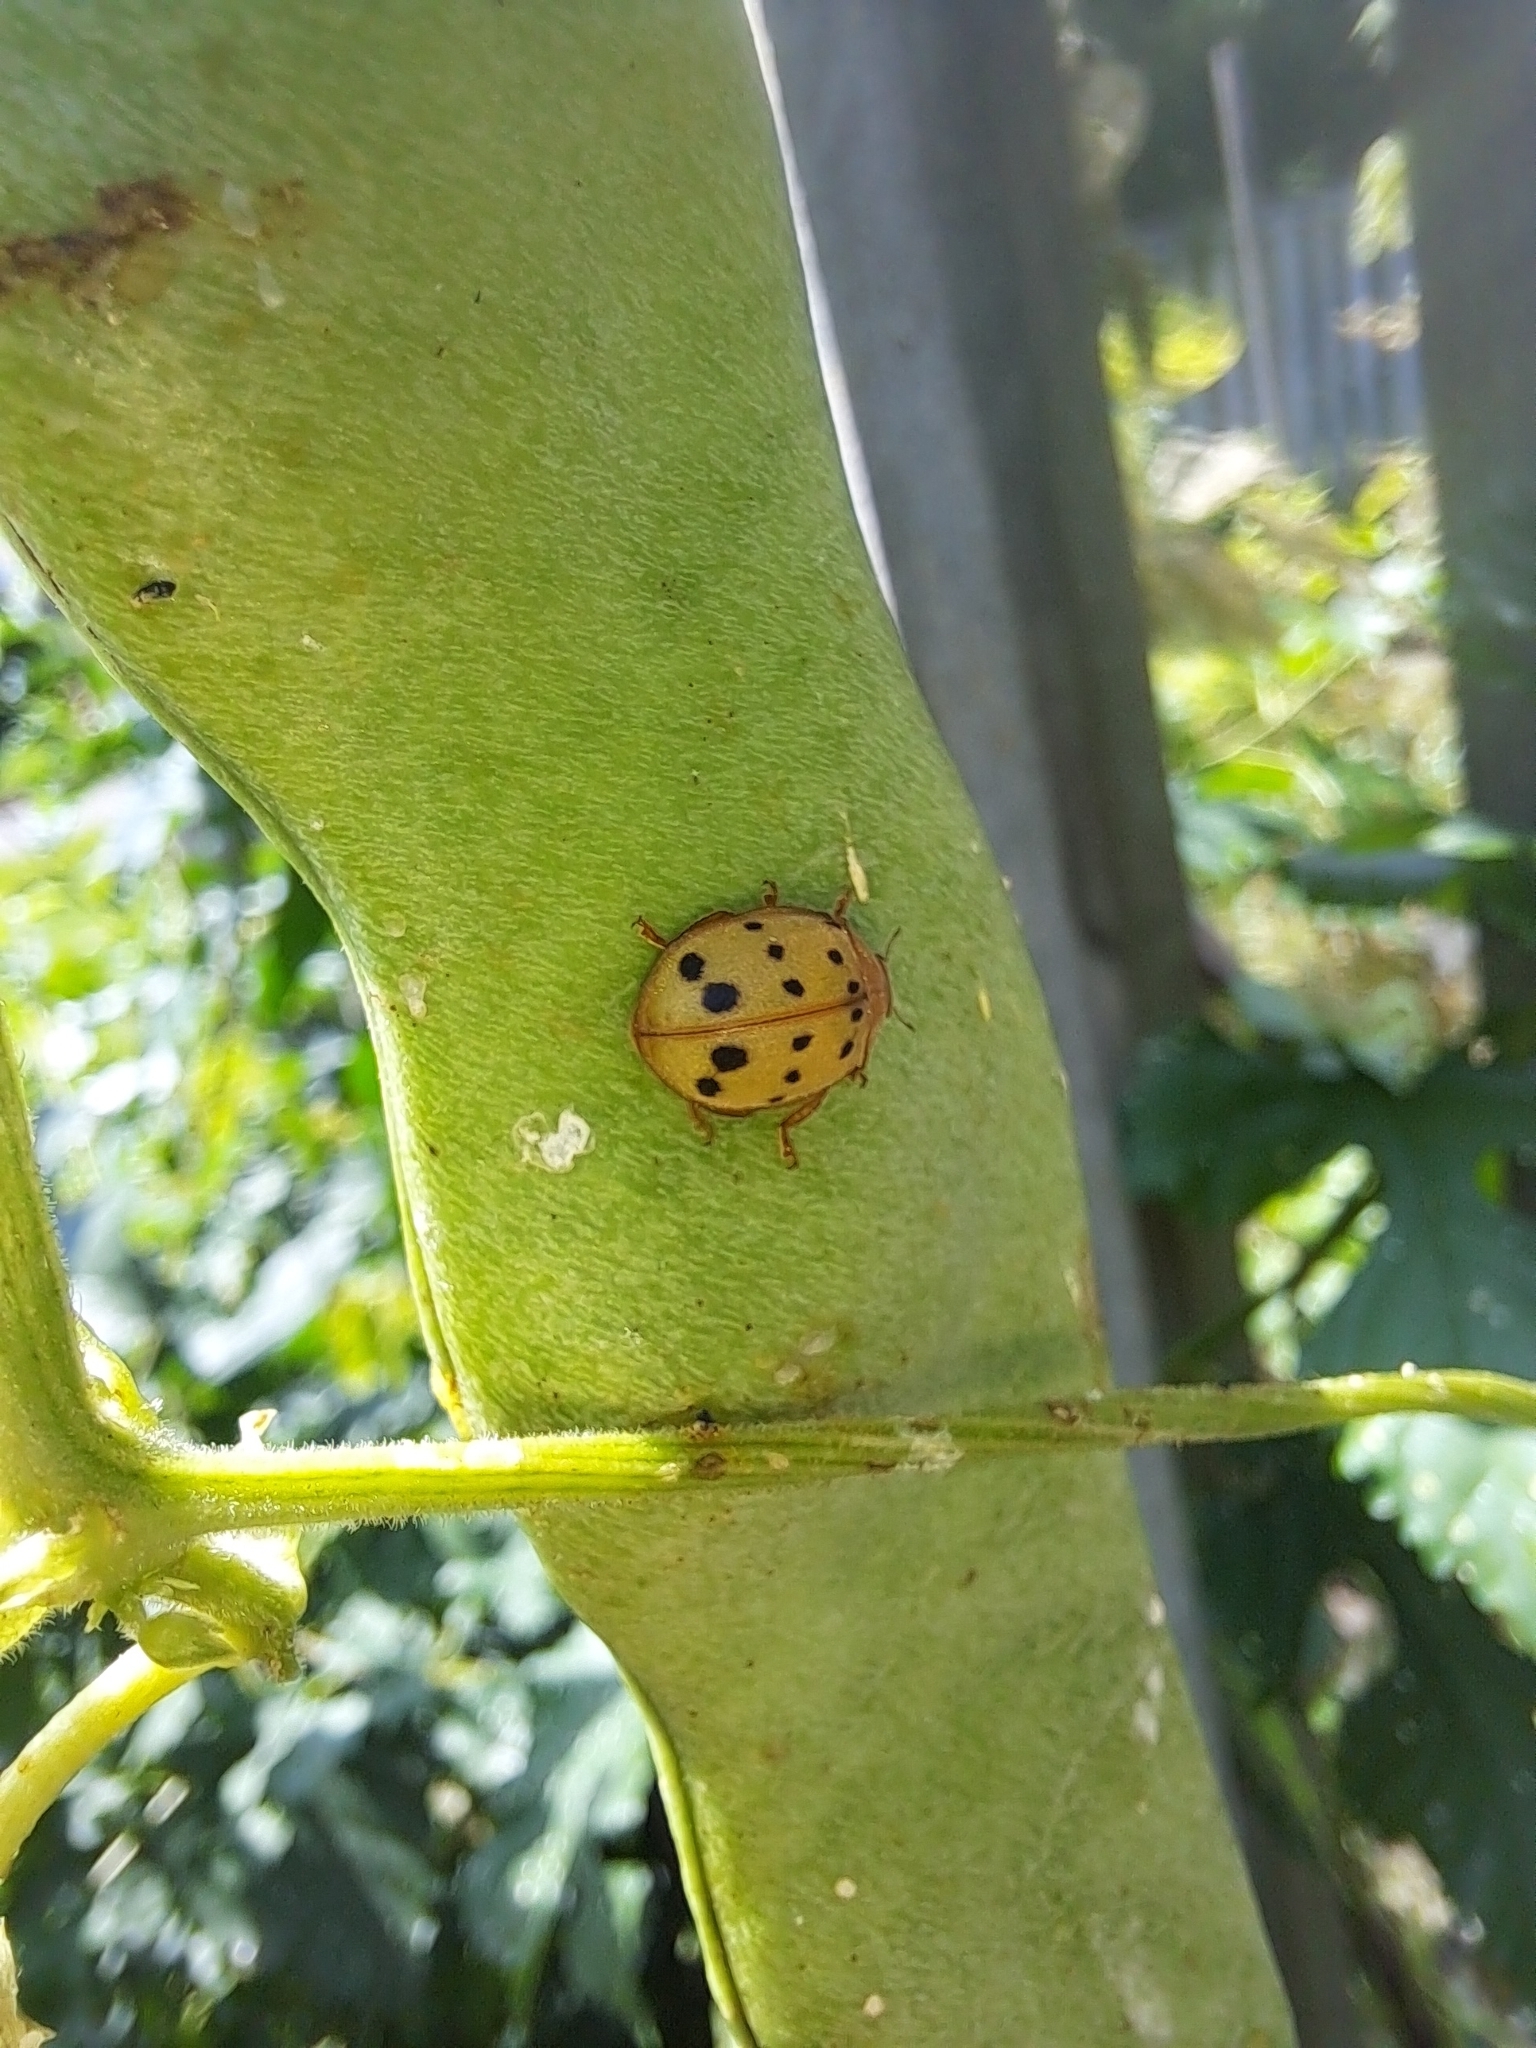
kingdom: Animalia
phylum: Arthropoda
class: Insecta
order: Coleoptera
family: Coccinellidae
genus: Epilachna
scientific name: Epilachna varivestis
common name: Ladybird beetle
